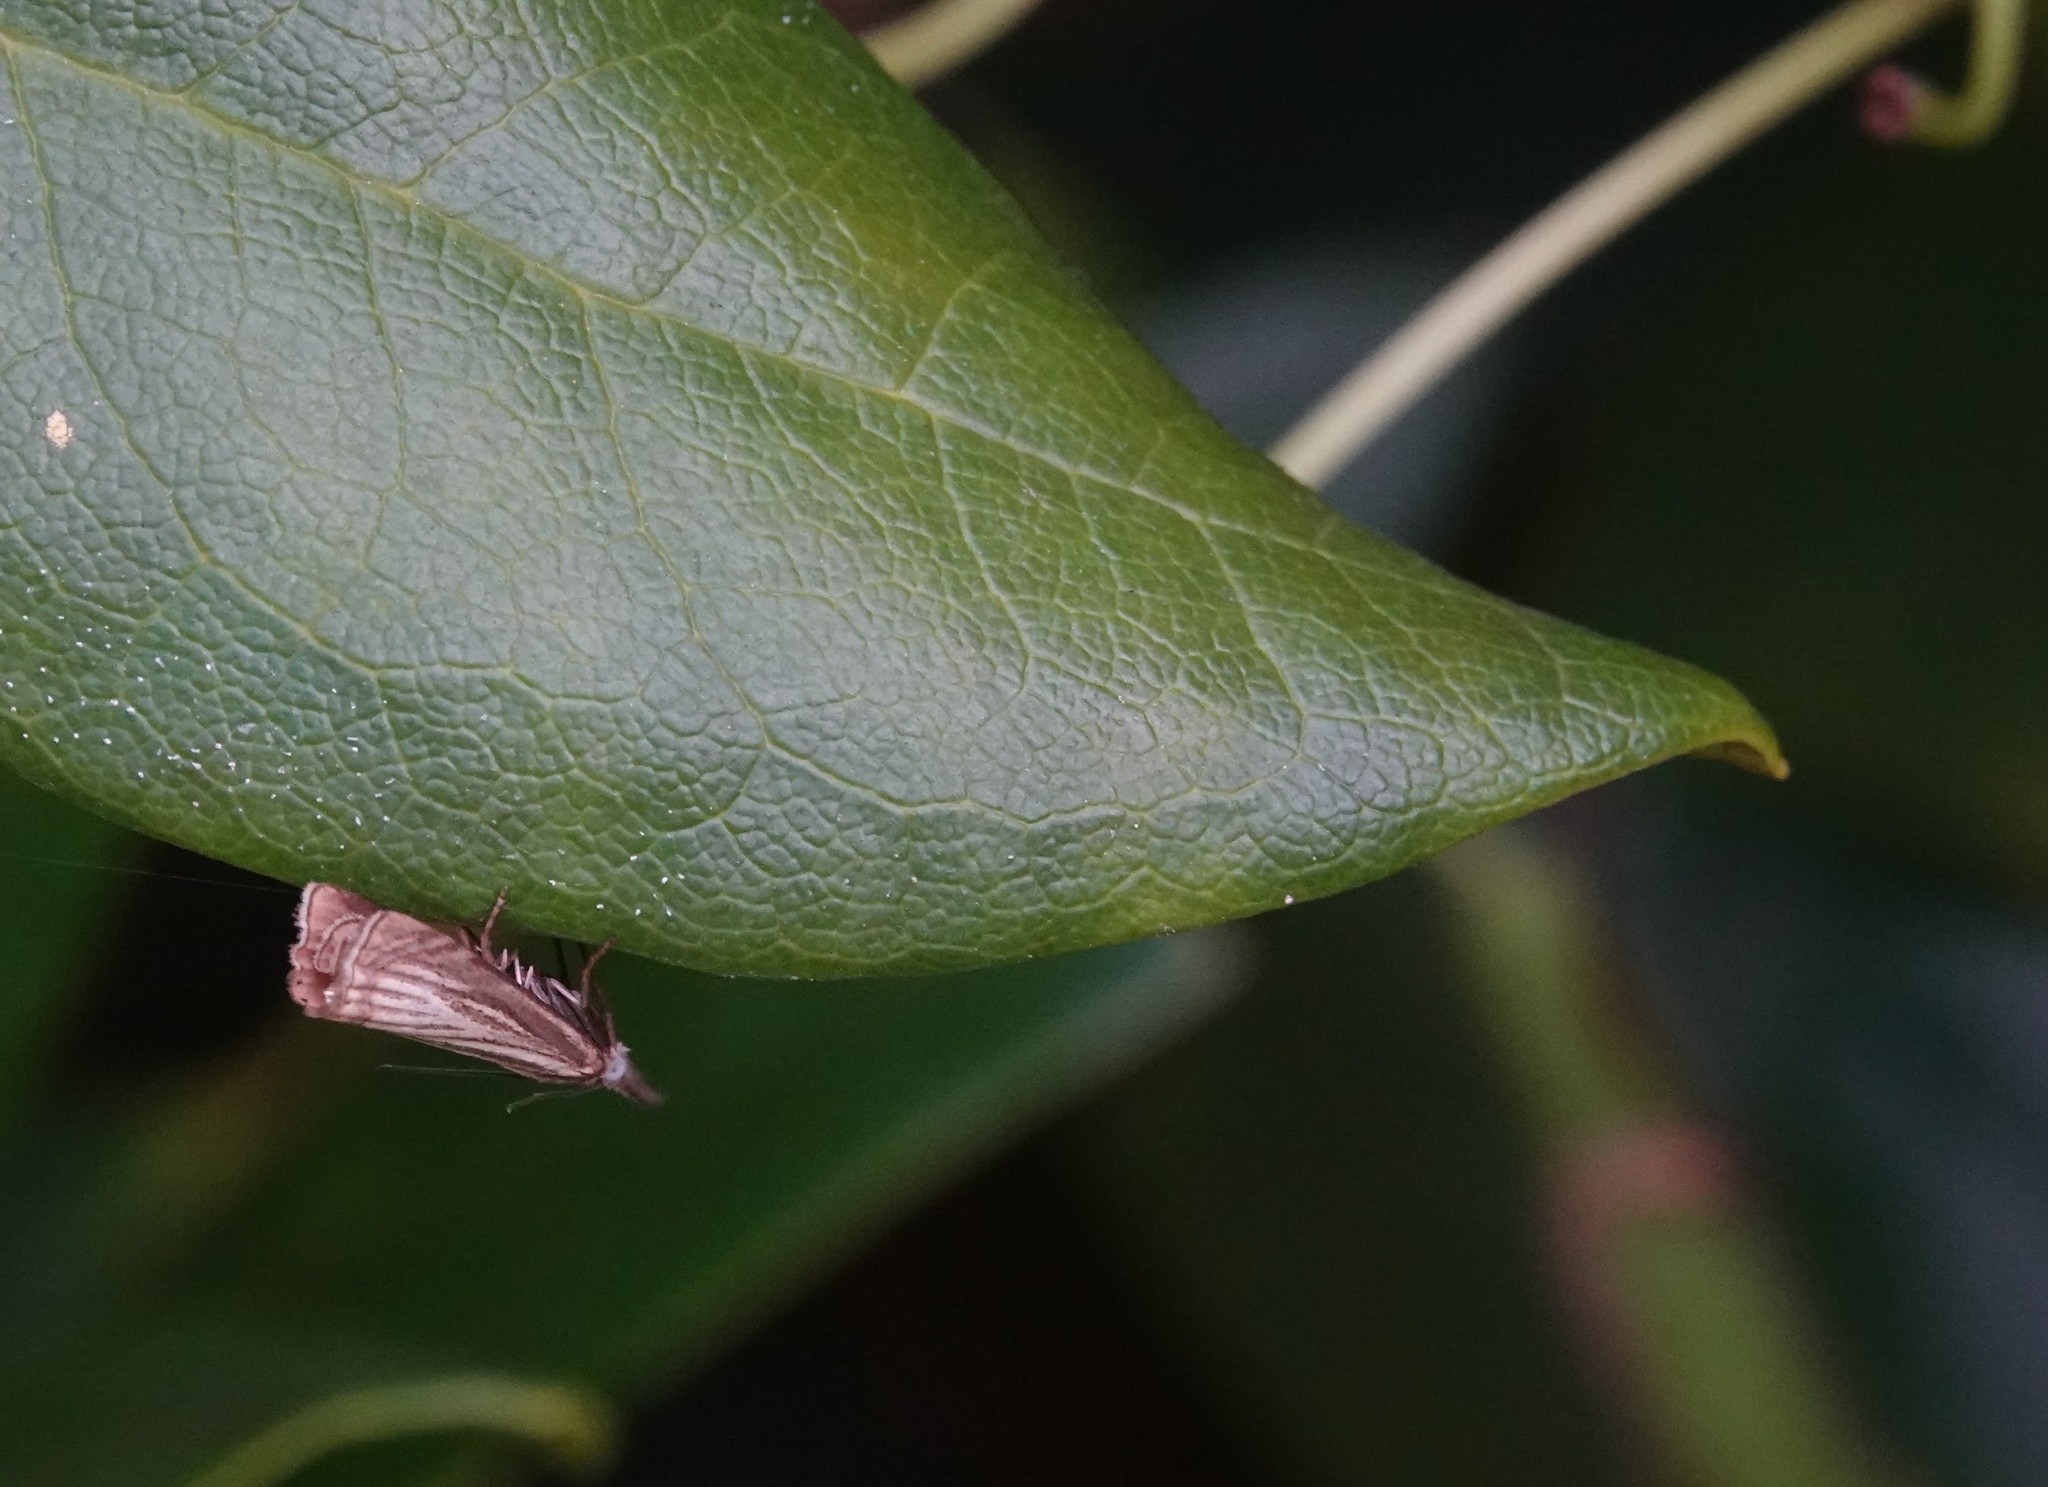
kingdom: Animalia
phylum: Arthropoda
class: Insecta
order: Lepidoptera
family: Crambidae
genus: Chrysoteuchia
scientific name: Chrysoteuchia culmella
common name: Garden grass-veneer
